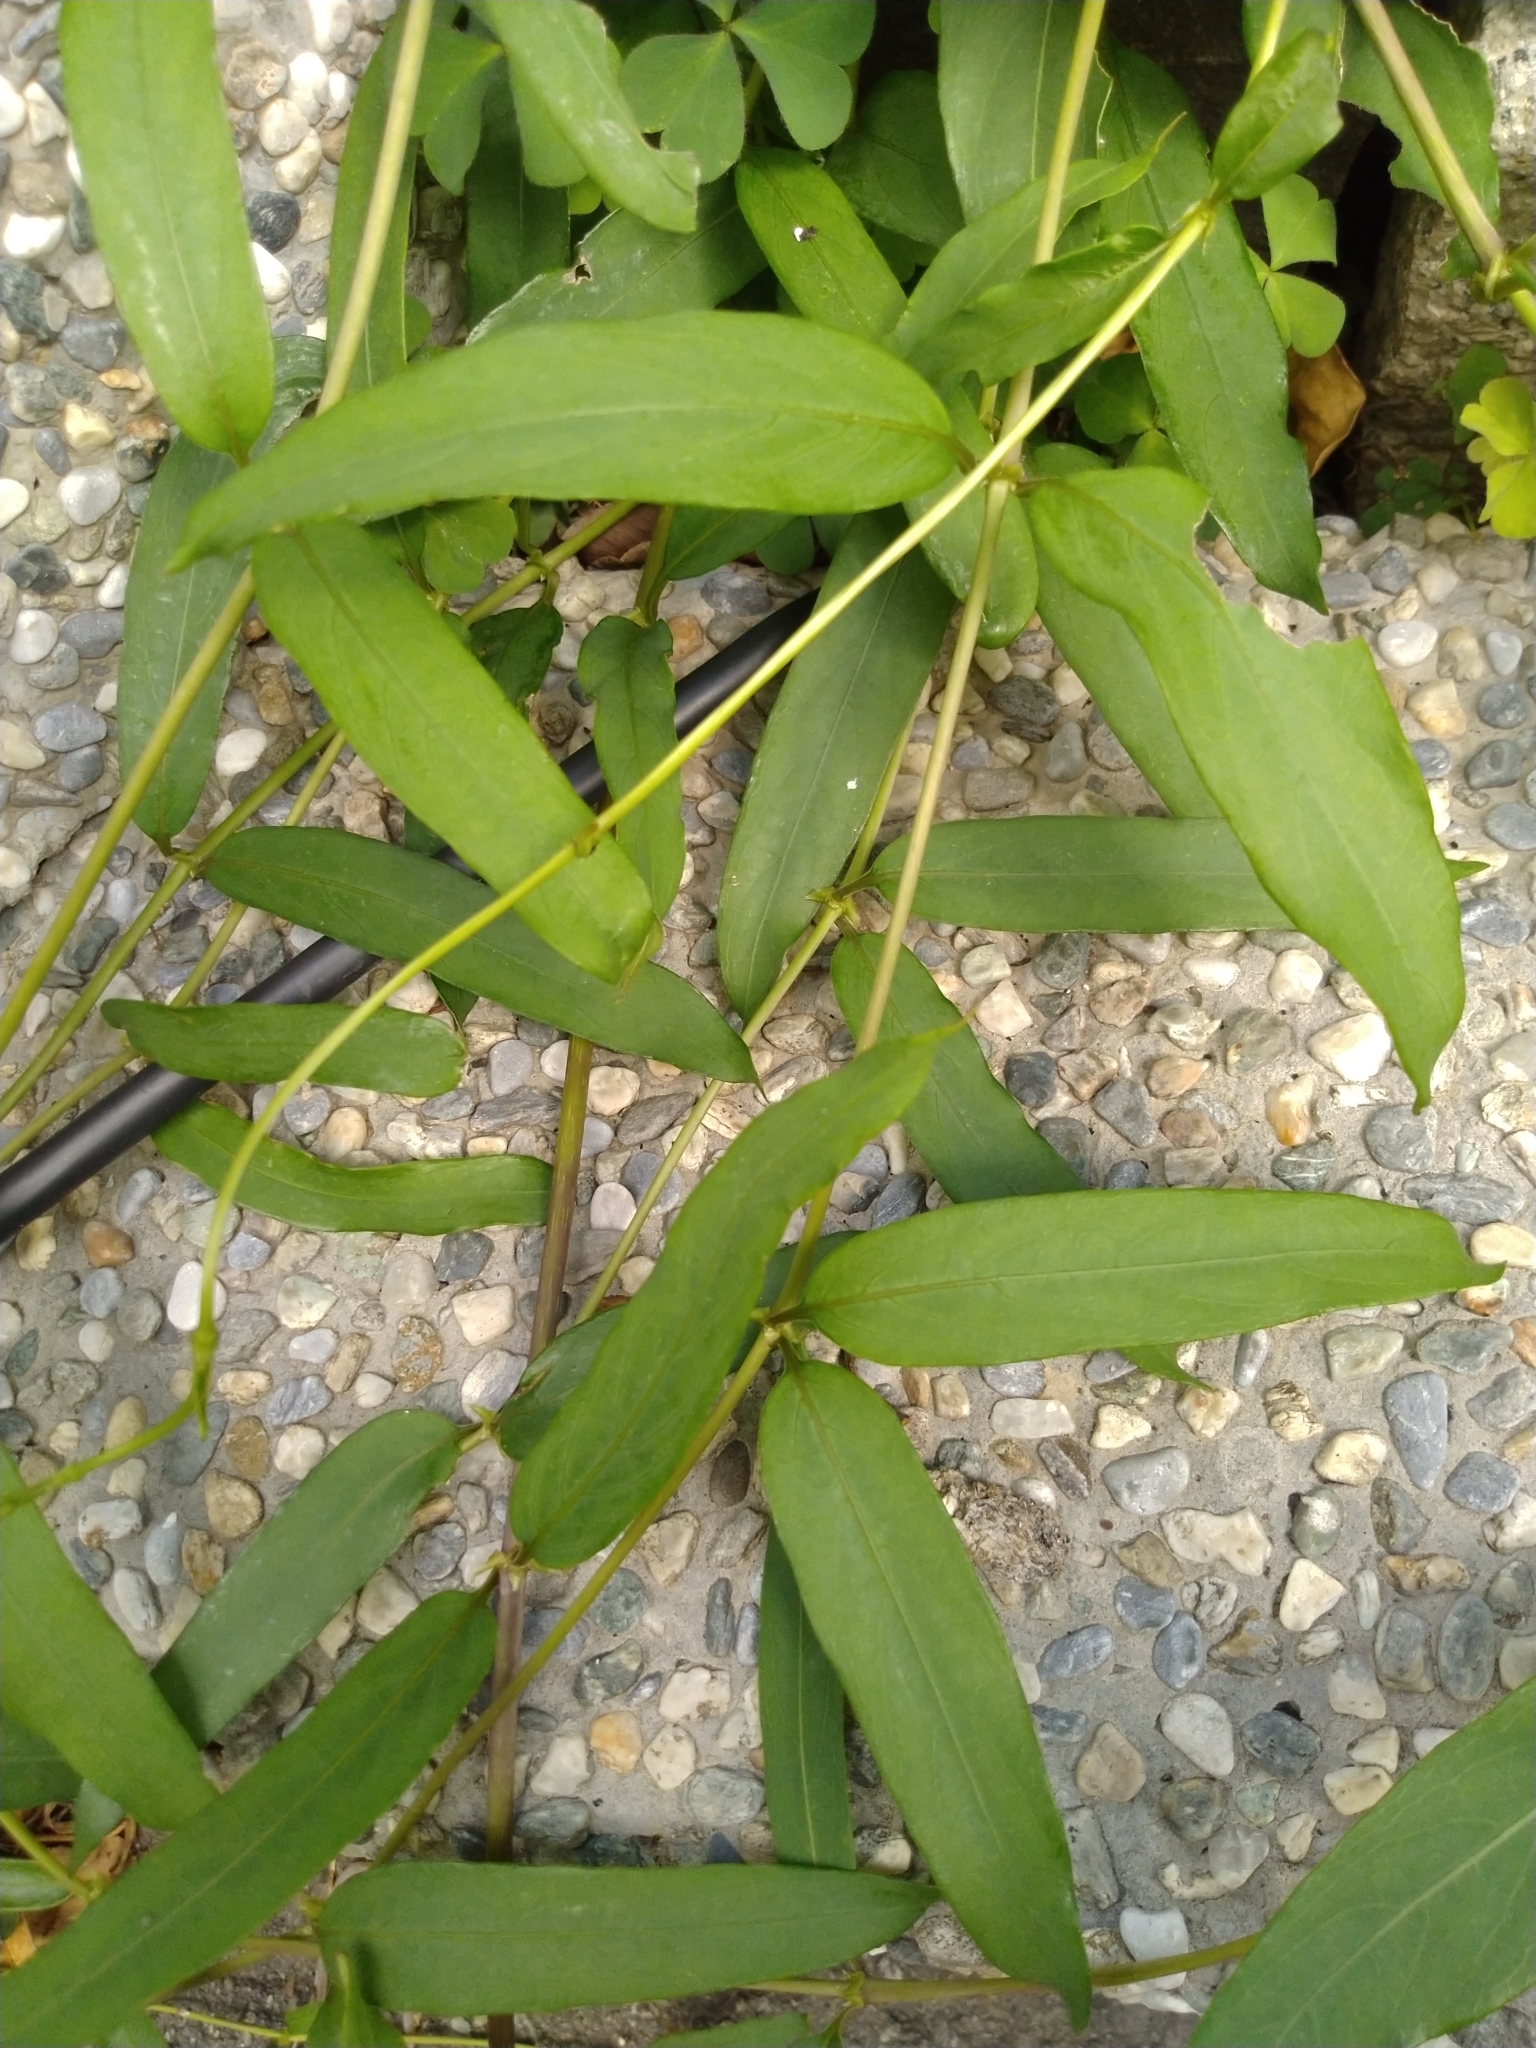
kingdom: Plantae
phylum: Tracheophyta
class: Magnoliopsida
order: Gentianales
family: Rubiaceae
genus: Paederia
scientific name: Paederia foetida
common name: Stinkvine
